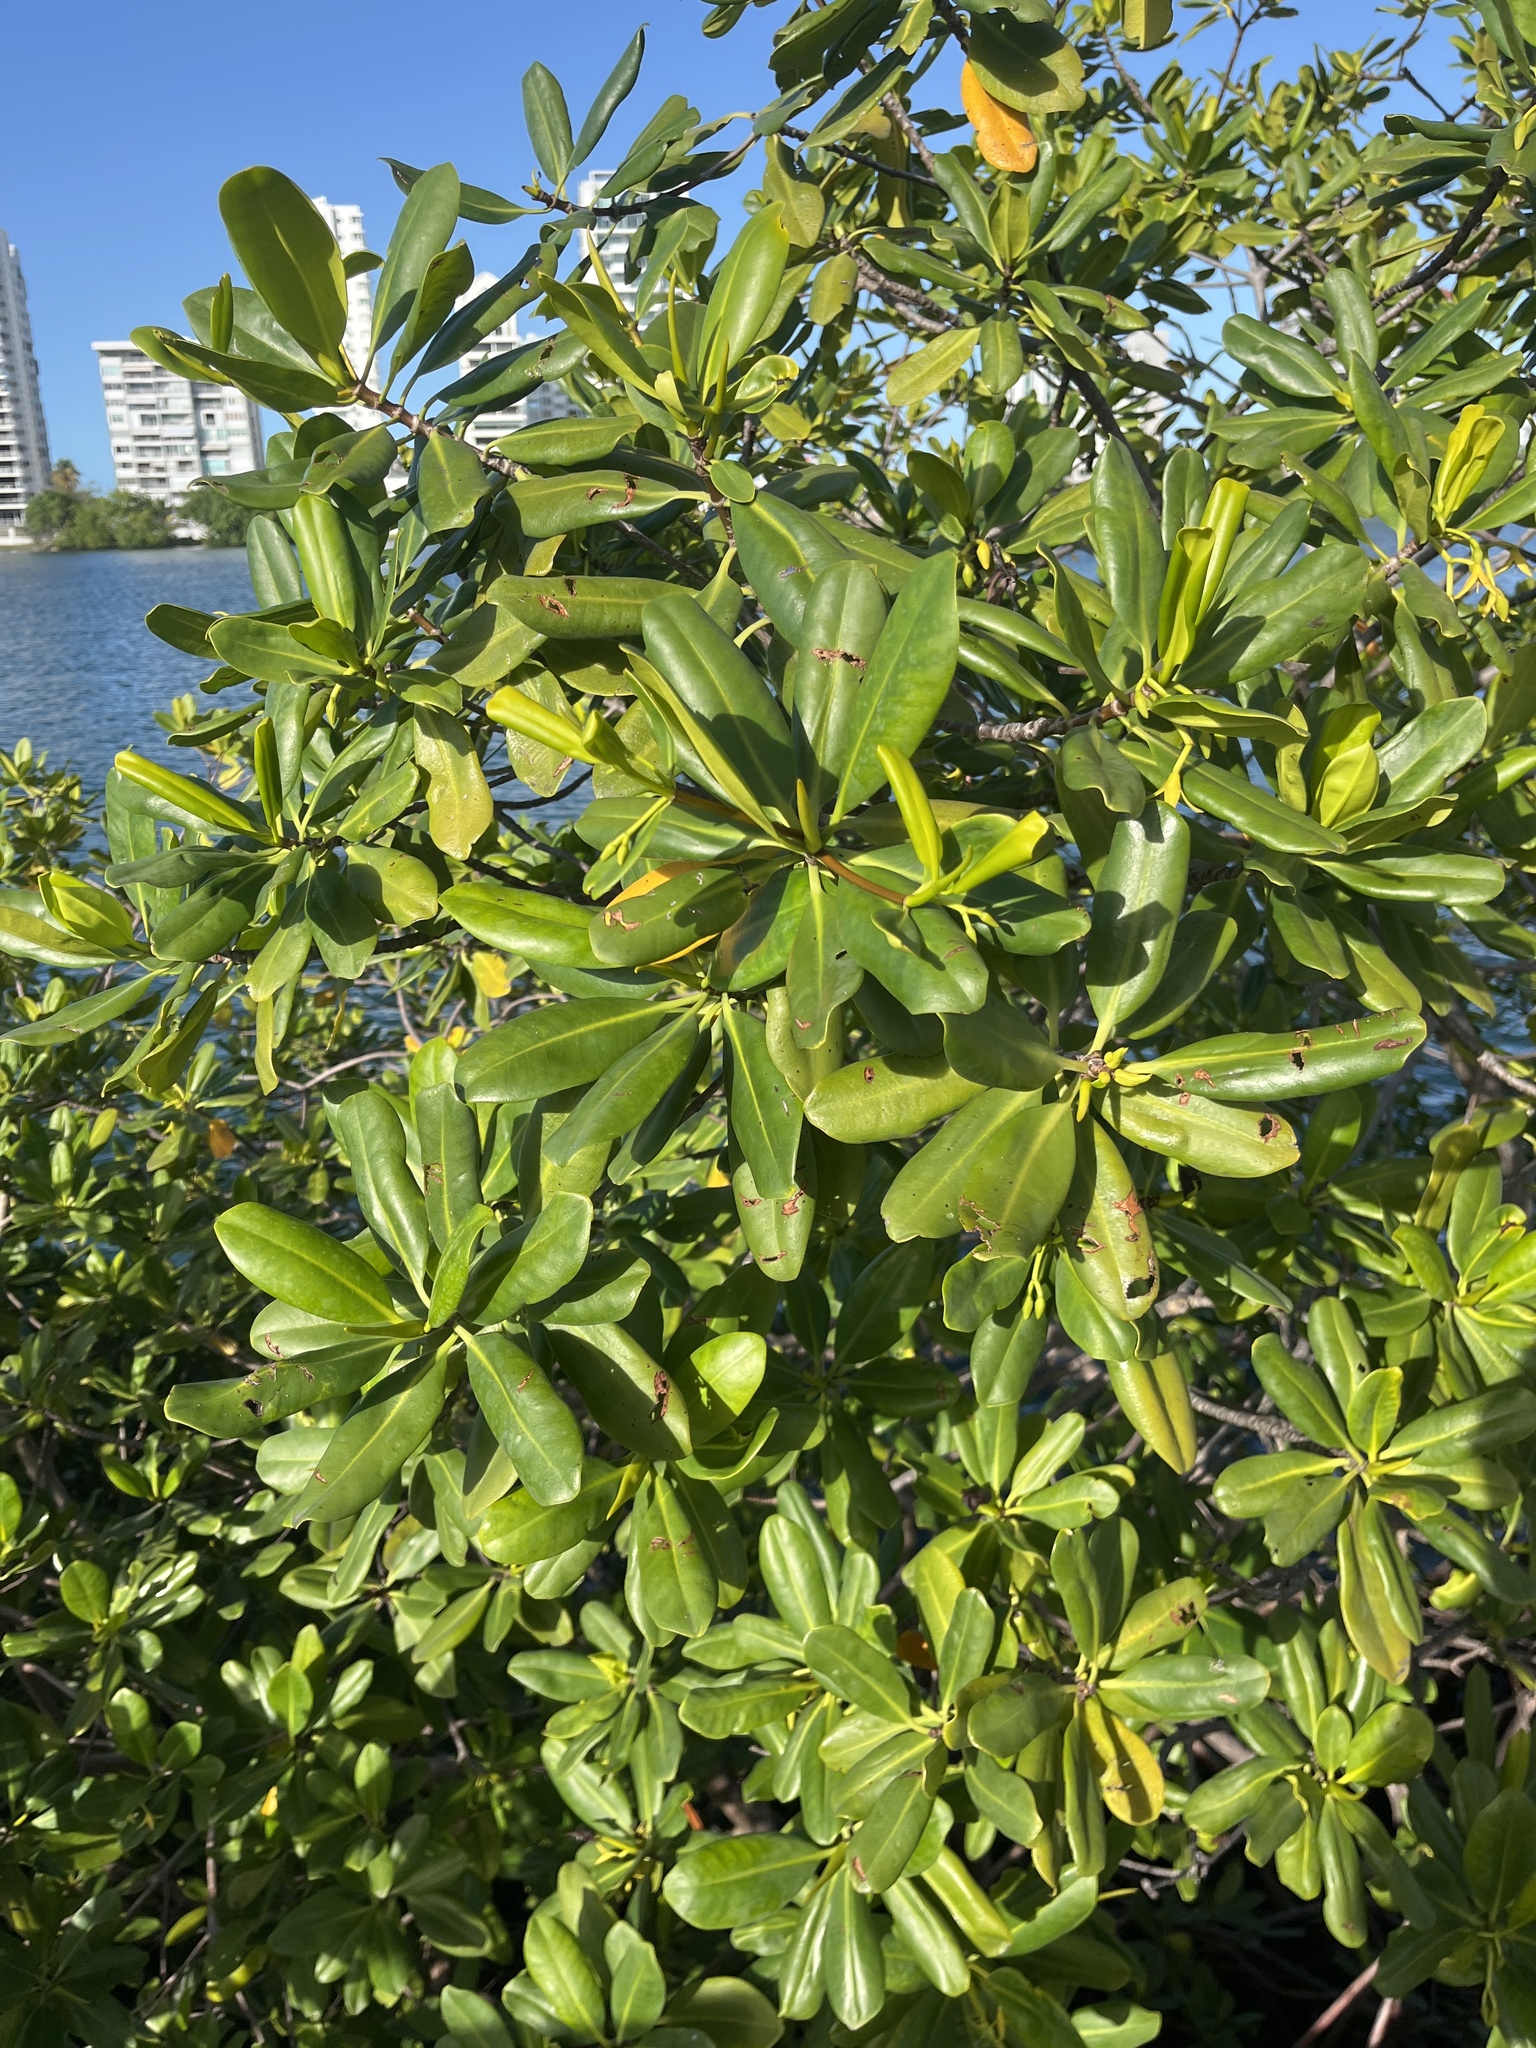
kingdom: Plantae
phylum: Tracheophyta
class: Magnoliopsida
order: Malpighiales
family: Rhizophoraceae
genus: Rhizophora
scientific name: Rhizophora mangle
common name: Red mangrove
